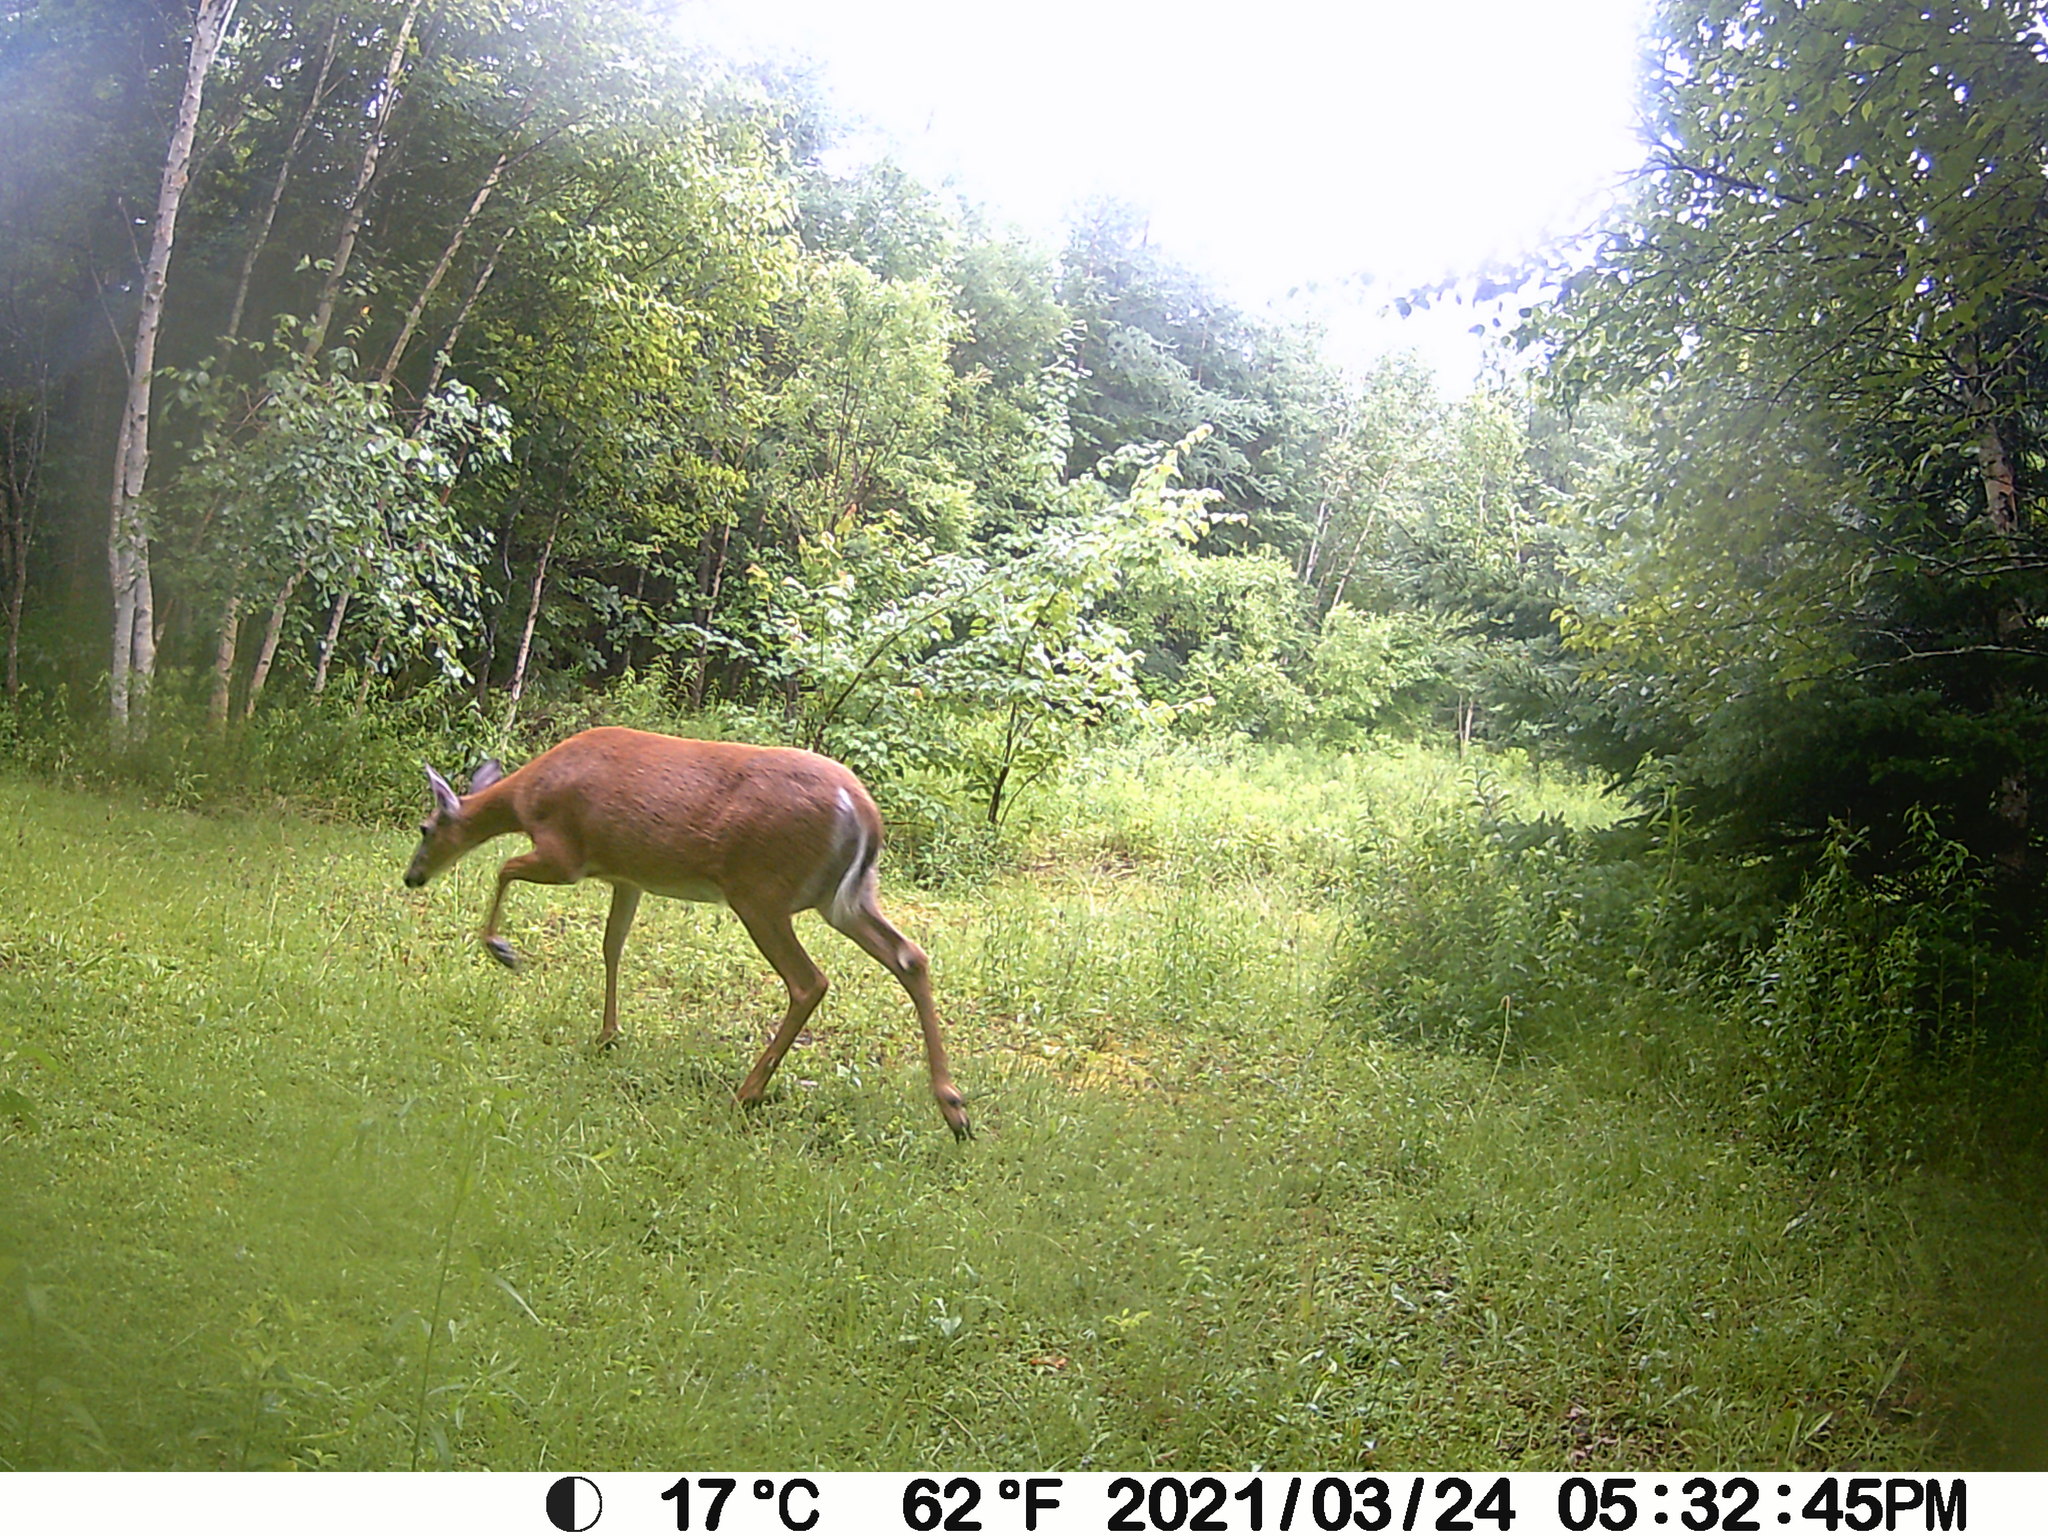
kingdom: Animalia
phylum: Chordata
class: Mammalia
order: Artiodactyla
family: Cervidae
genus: Odocoileus
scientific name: Odocoileus virginianus
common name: White-tailed deer
